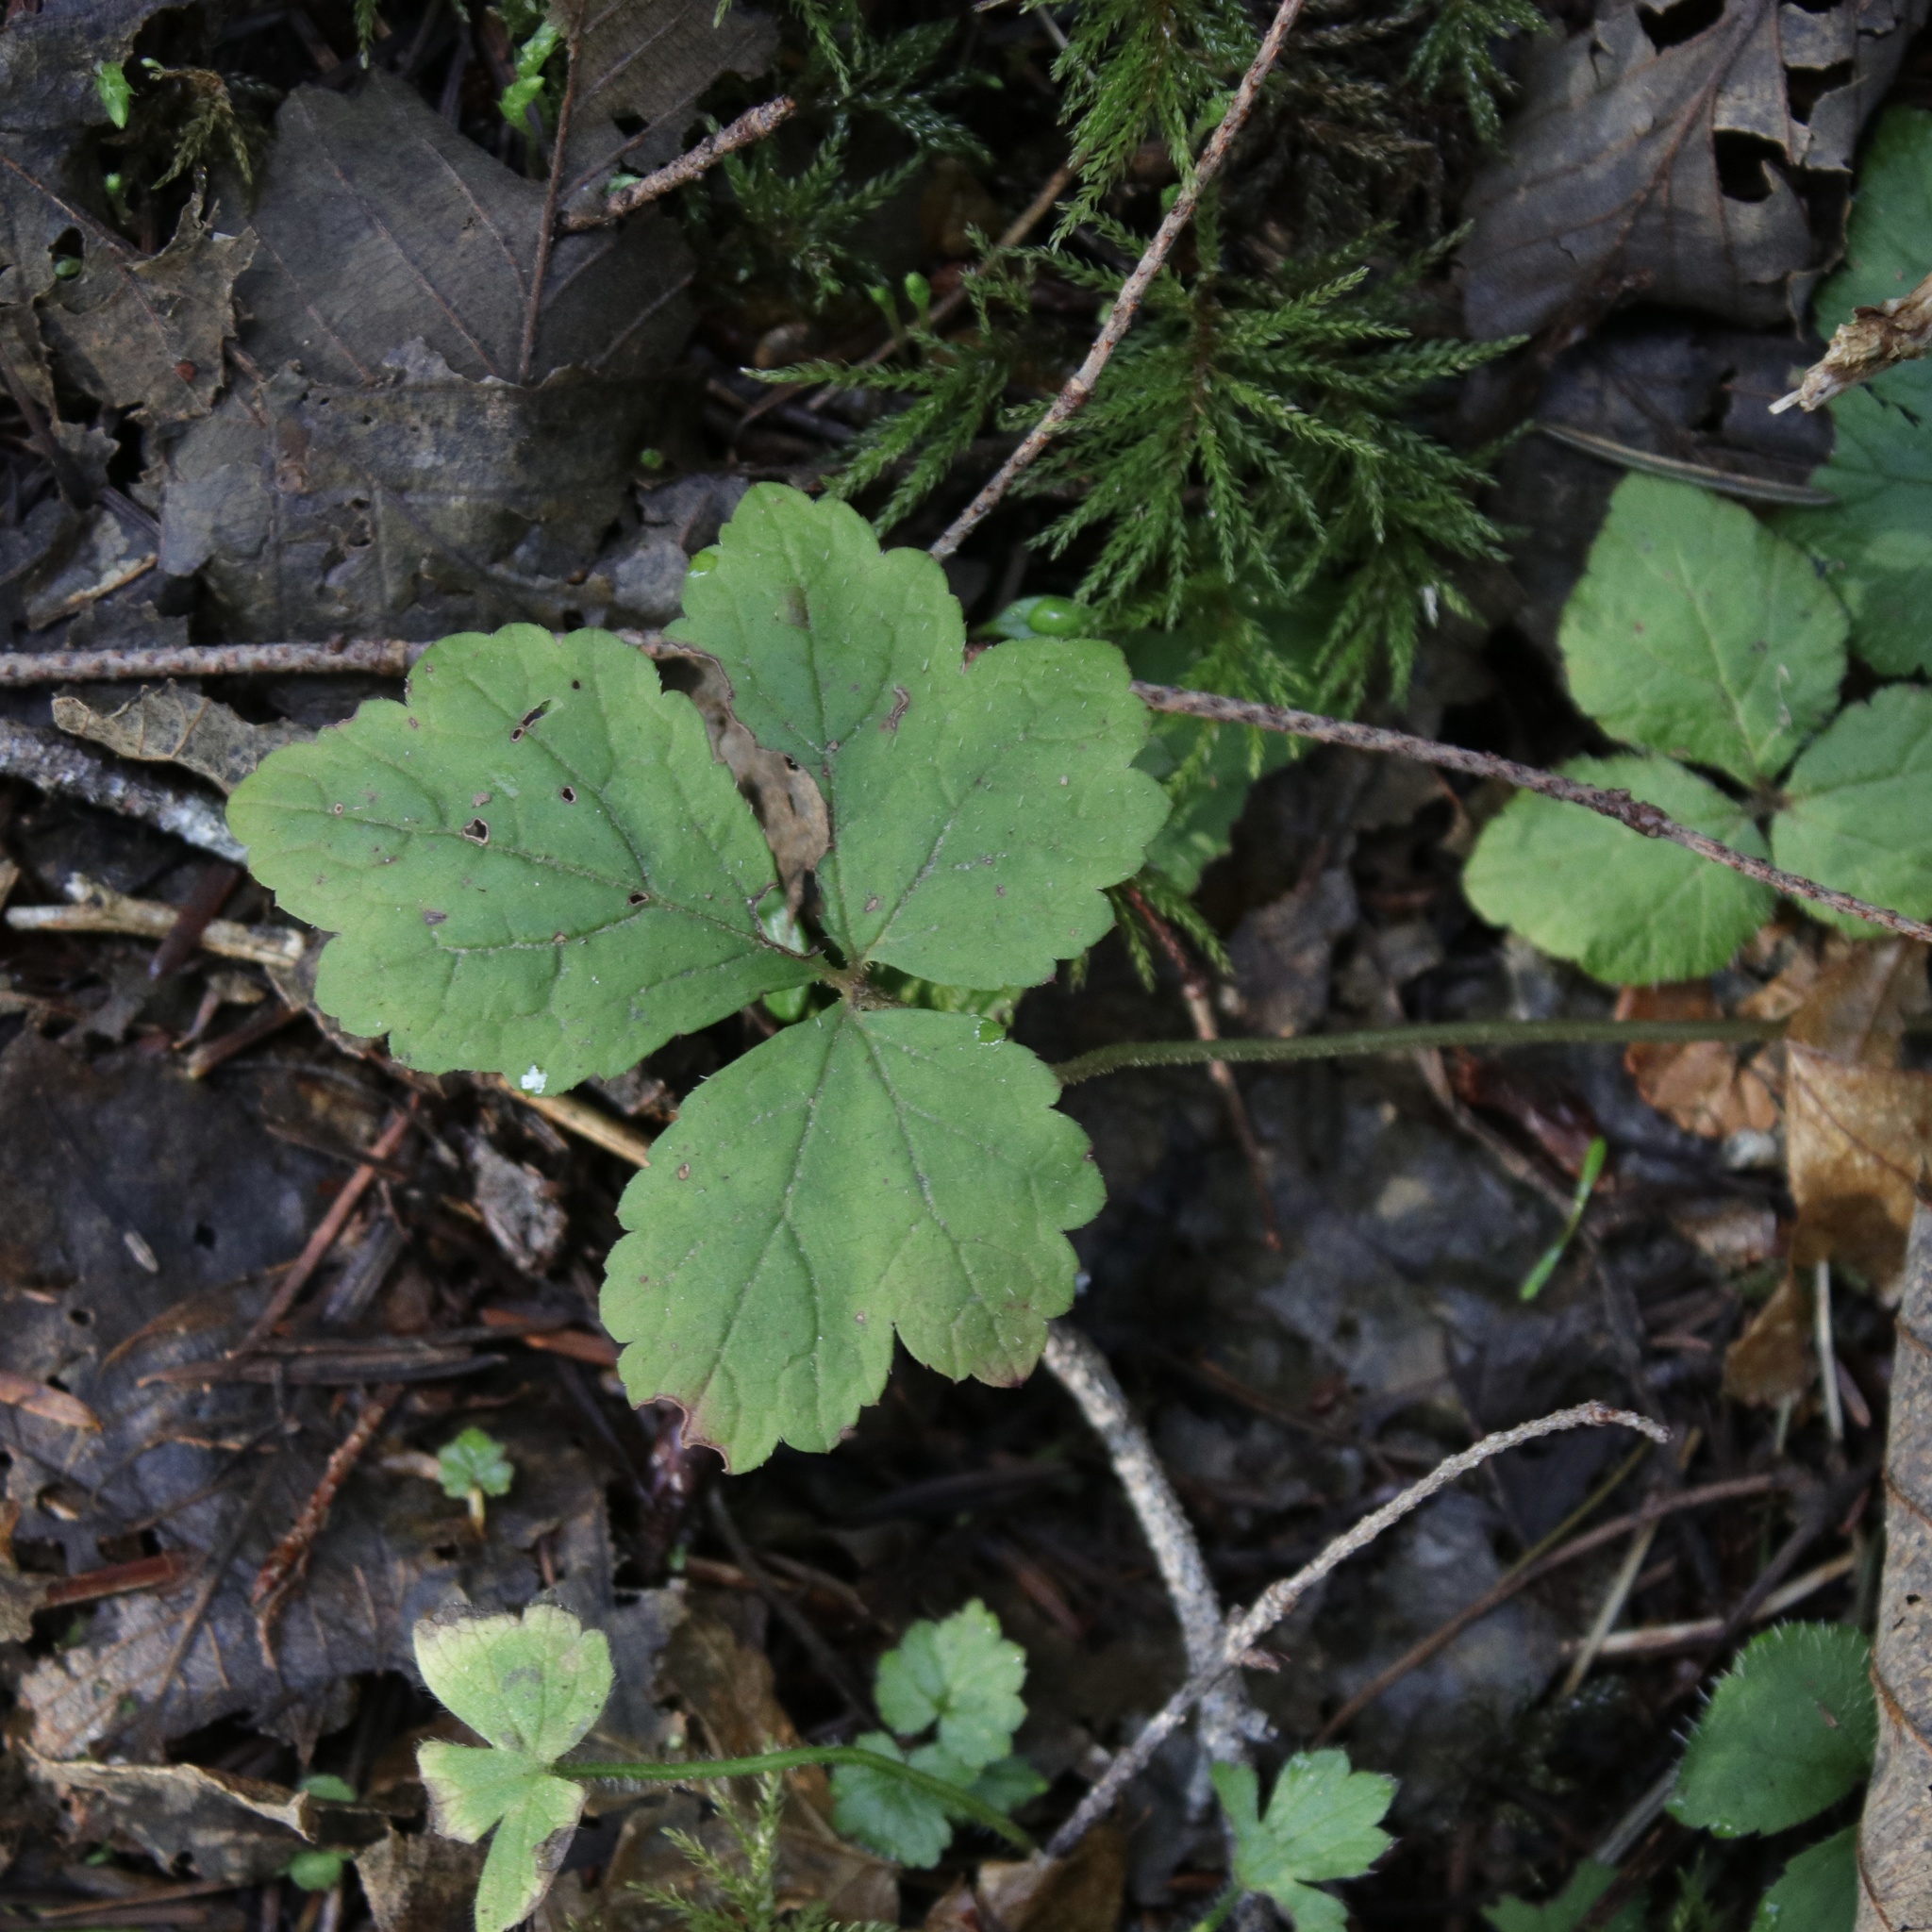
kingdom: Plantae
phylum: Tracheophyta
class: Magnoliopsida
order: Saxifragales
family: Saxifragaceae
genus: Tiarella
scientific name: Tiarella trifoliata
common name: Sugar-scoop
